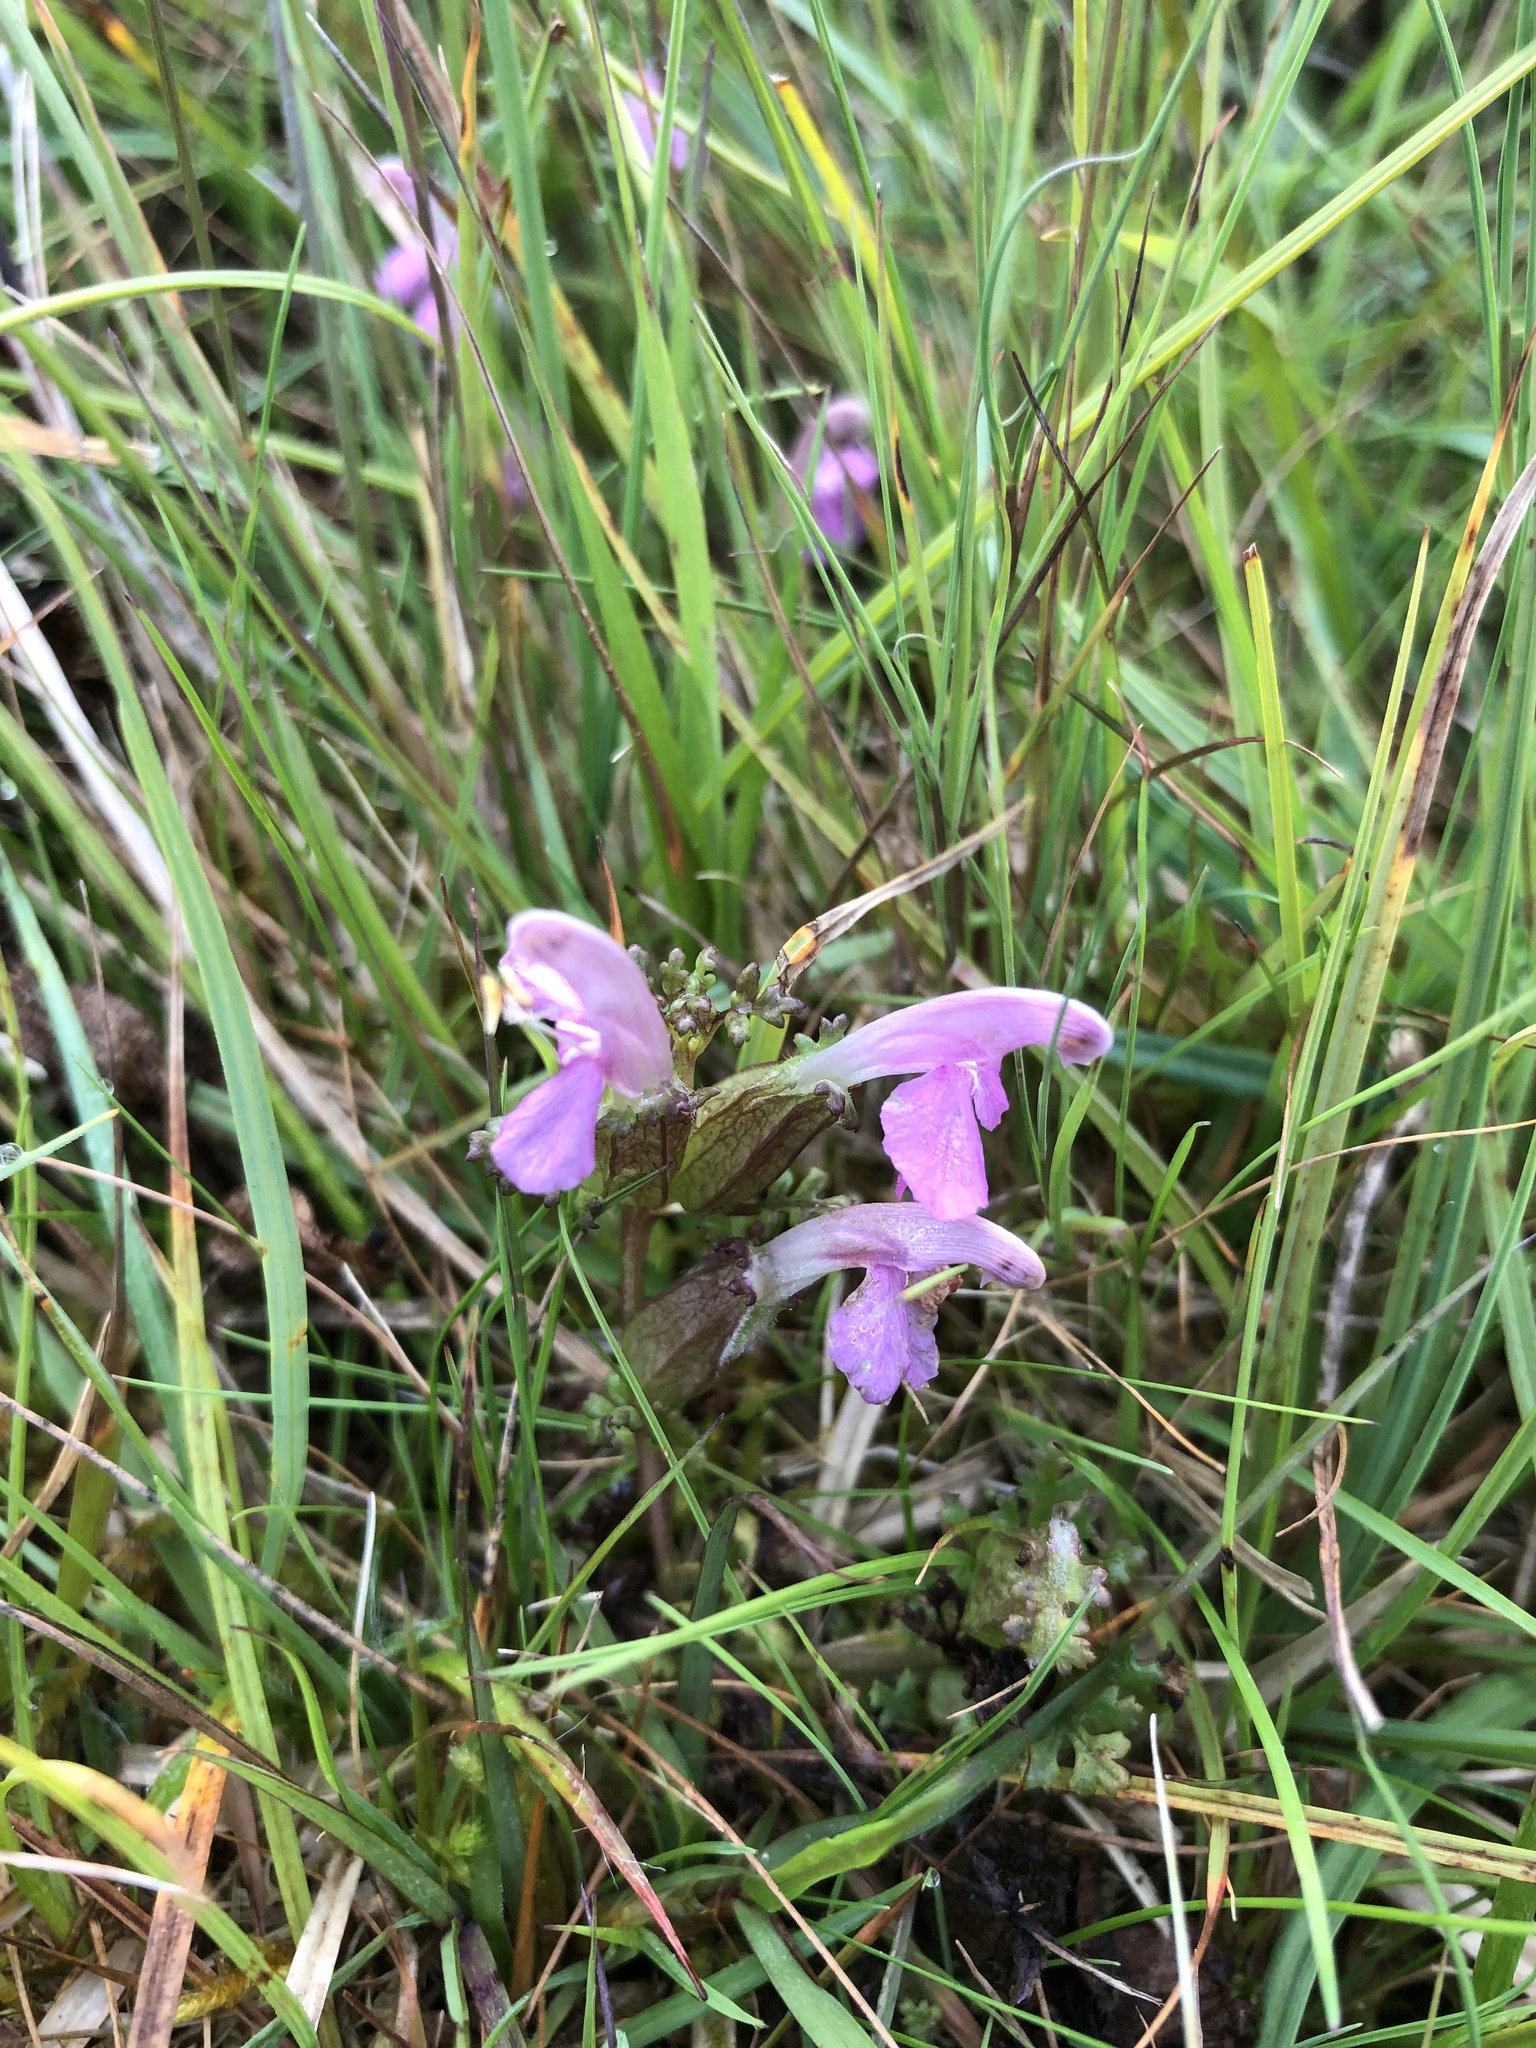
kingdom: Plantae
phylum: Tracheophyta
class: Magnoliopsida
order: Lamiales
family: Orobanchaceae
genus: Pedicularis
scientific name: Pedicularis sylvatica
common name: Lousewort
